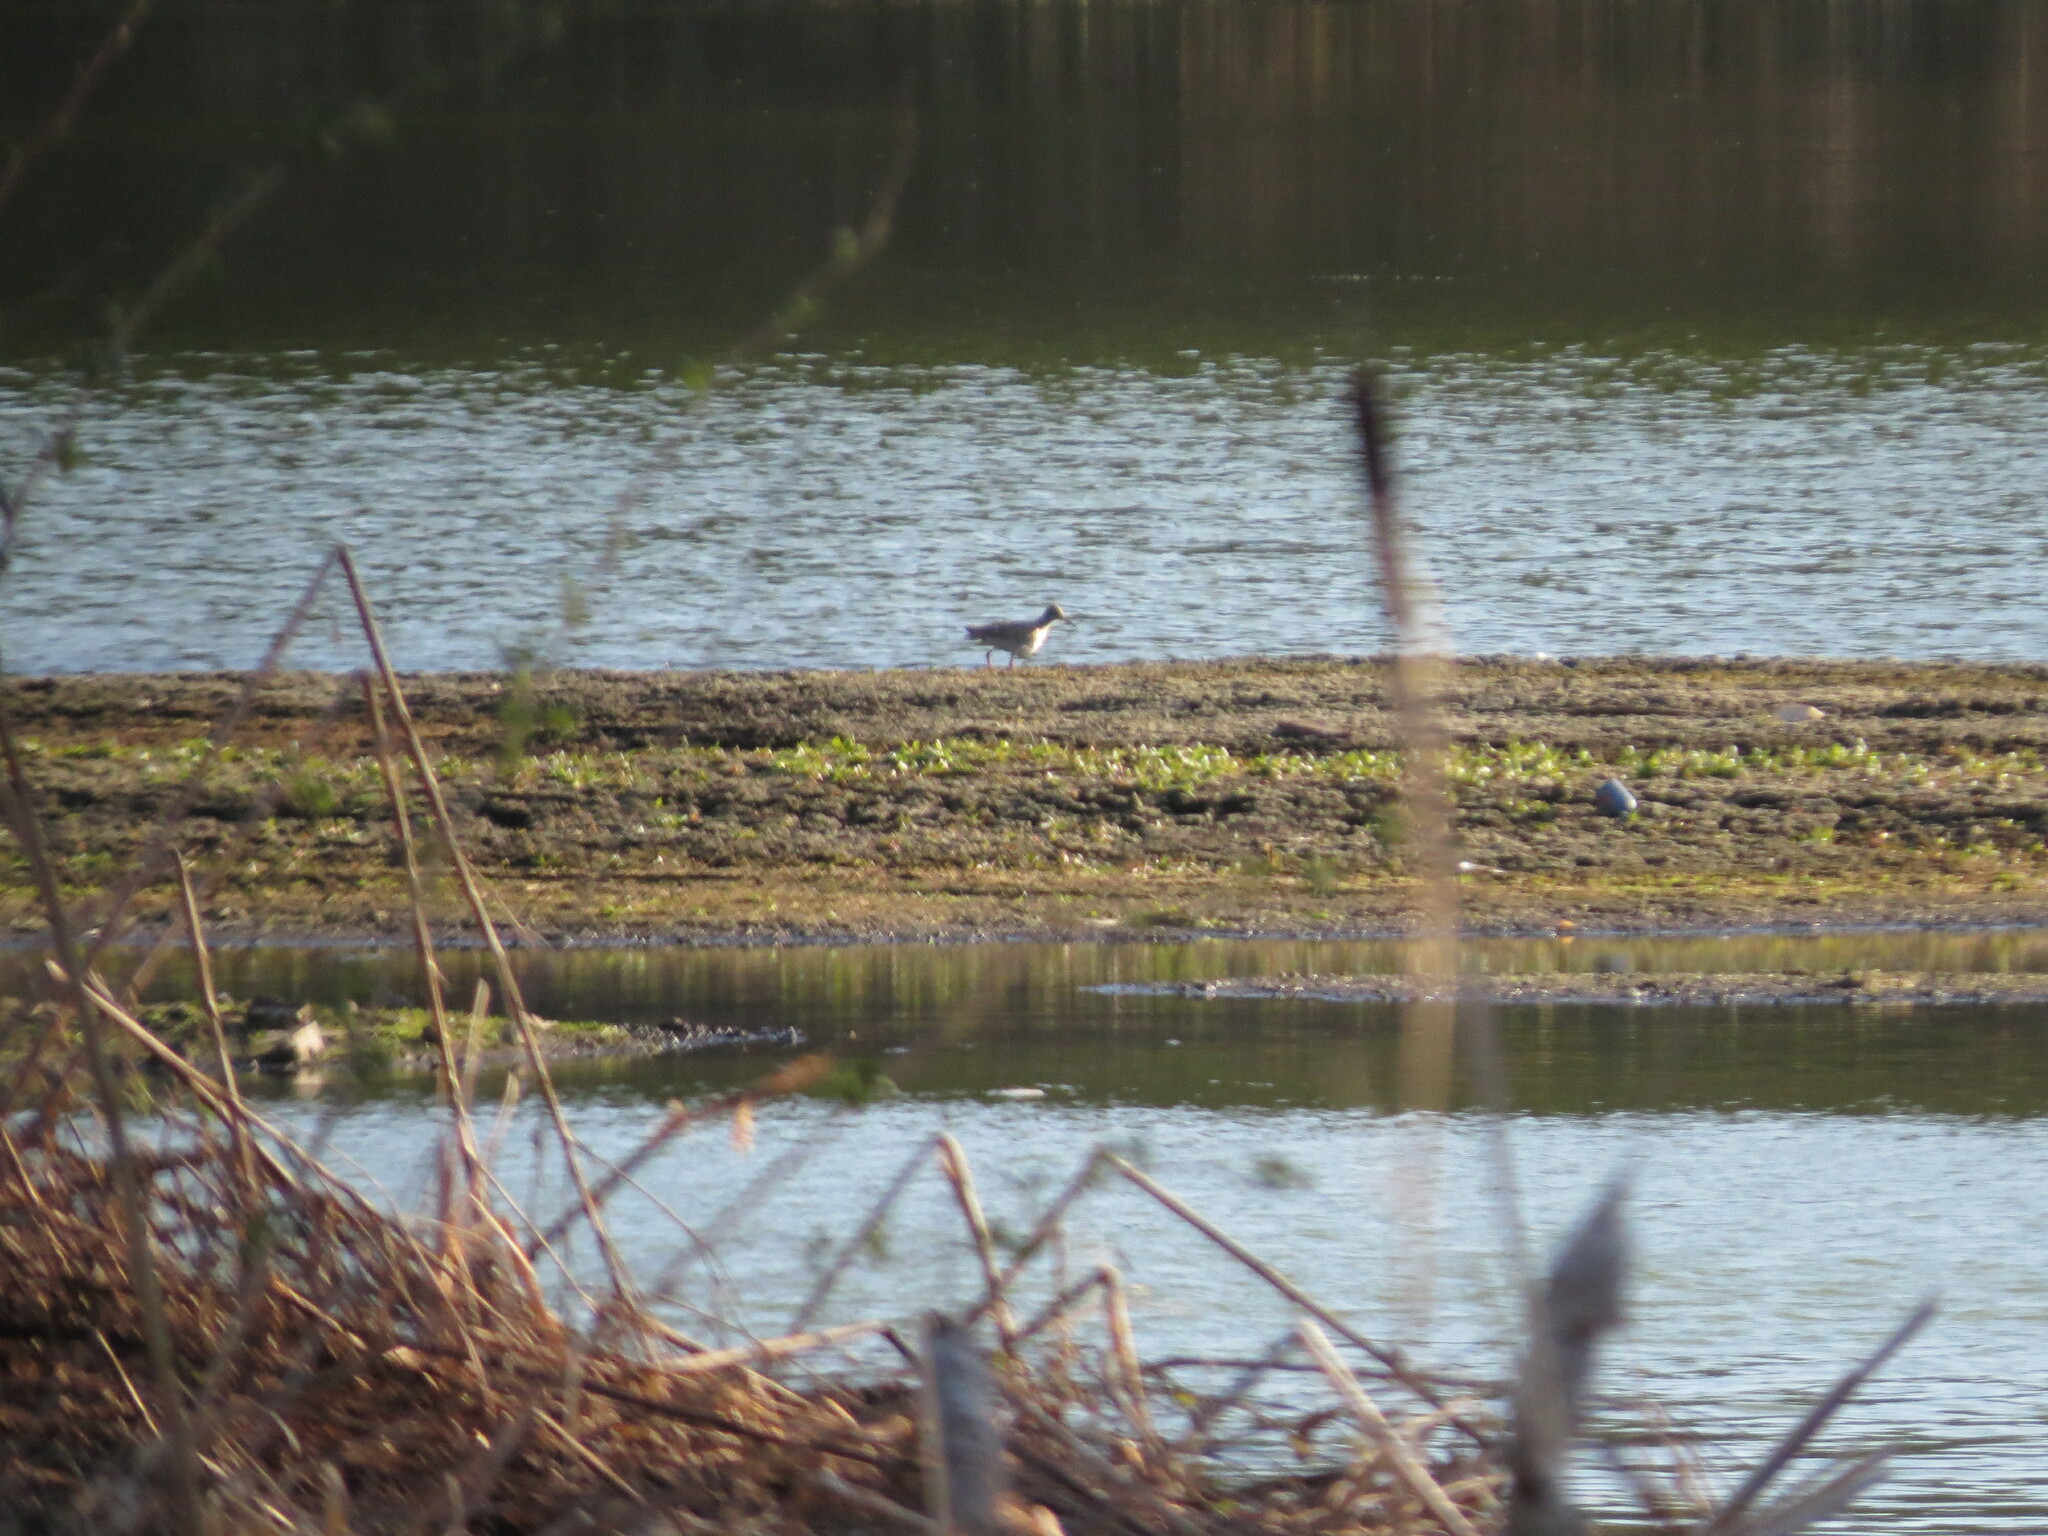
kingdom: Animalia
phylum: Chordata
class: Aves
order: Charadriiformes
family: Scolopacidae
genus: Tringa
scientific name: Tringa totanus
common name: Common redshank
